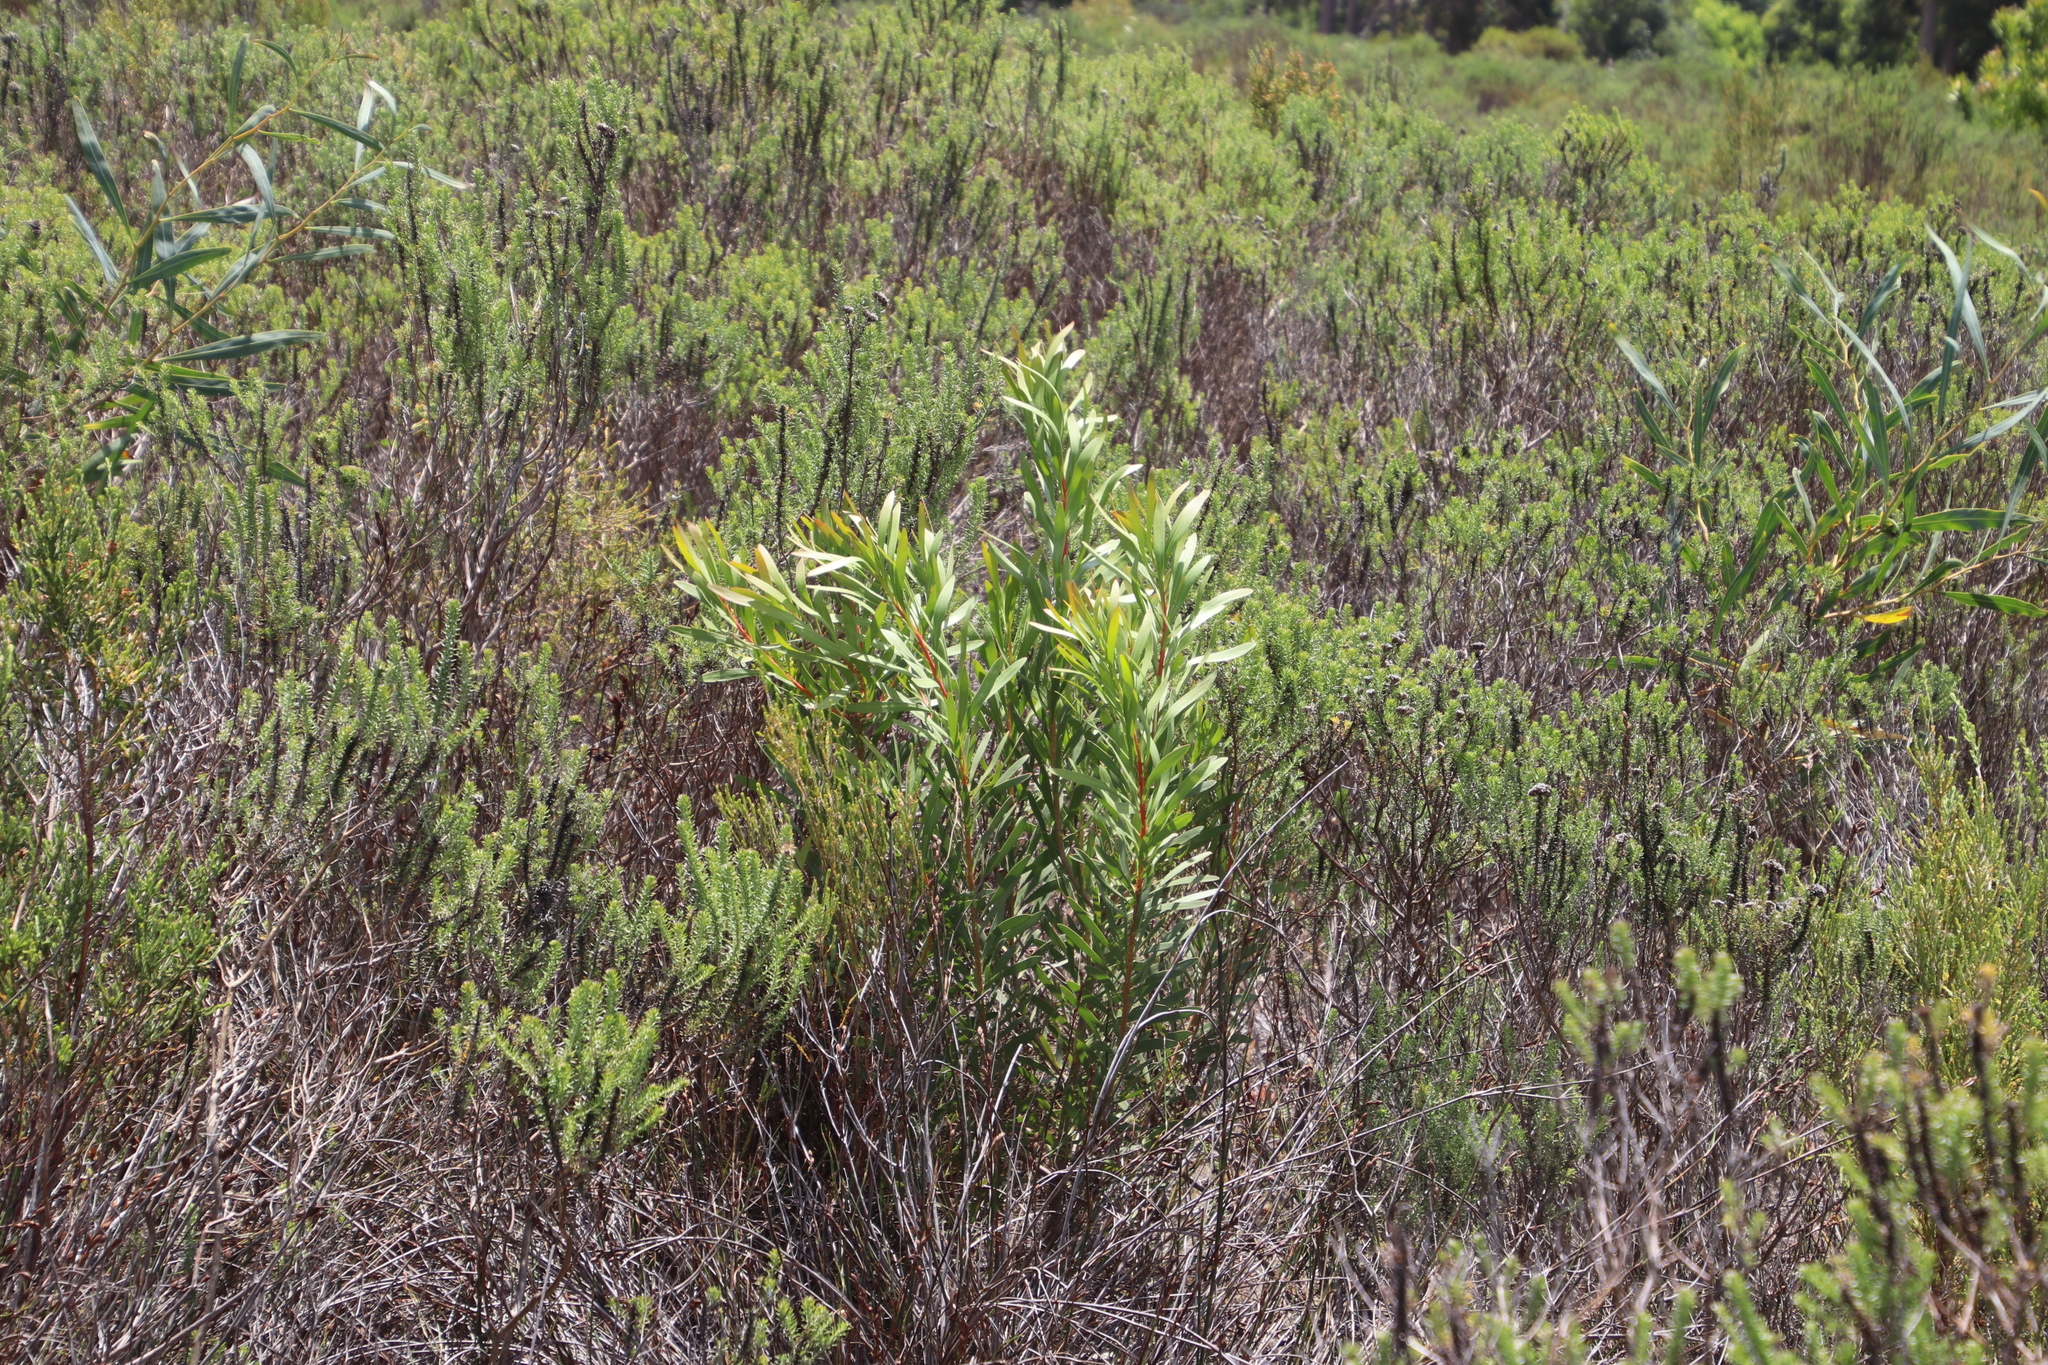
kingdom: Plantae
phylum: Tracheophyta
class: Magnoliopsida
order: Proteales
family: Proteaceae
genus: Protea
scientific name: Protea repens
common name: Sugarbush
